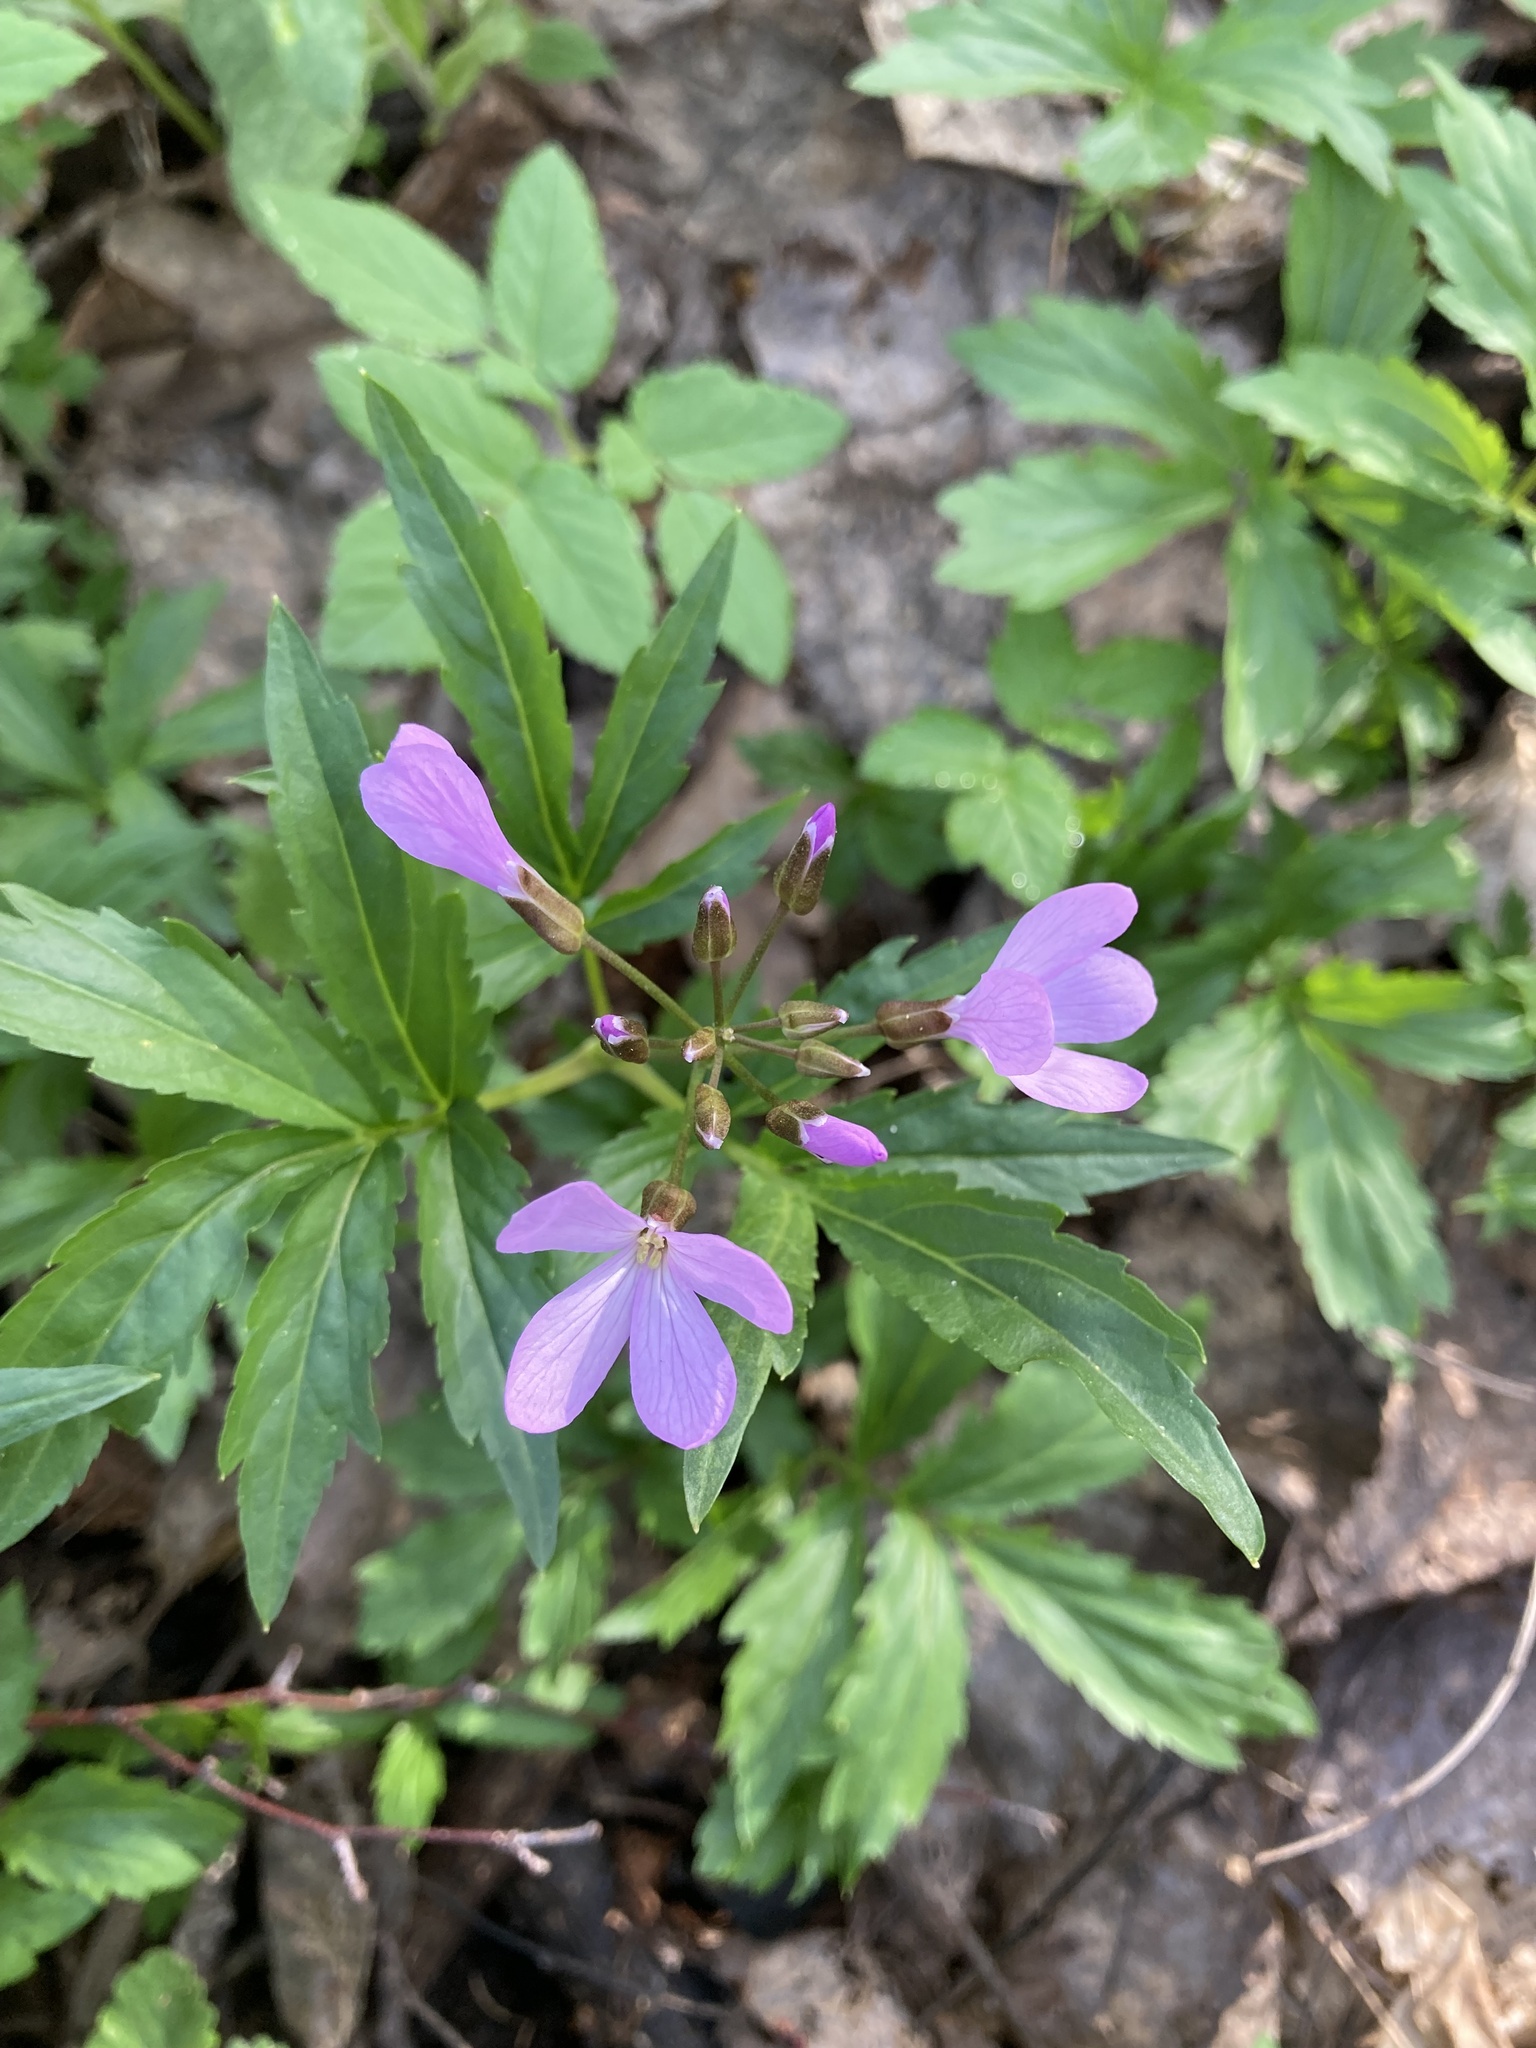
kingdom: Plantae
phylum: Tracheophyta
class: Magnoliopsida
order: Brassicales
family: Brassicaceae
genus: Cardamine
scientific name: Cardamine quinquefolia
